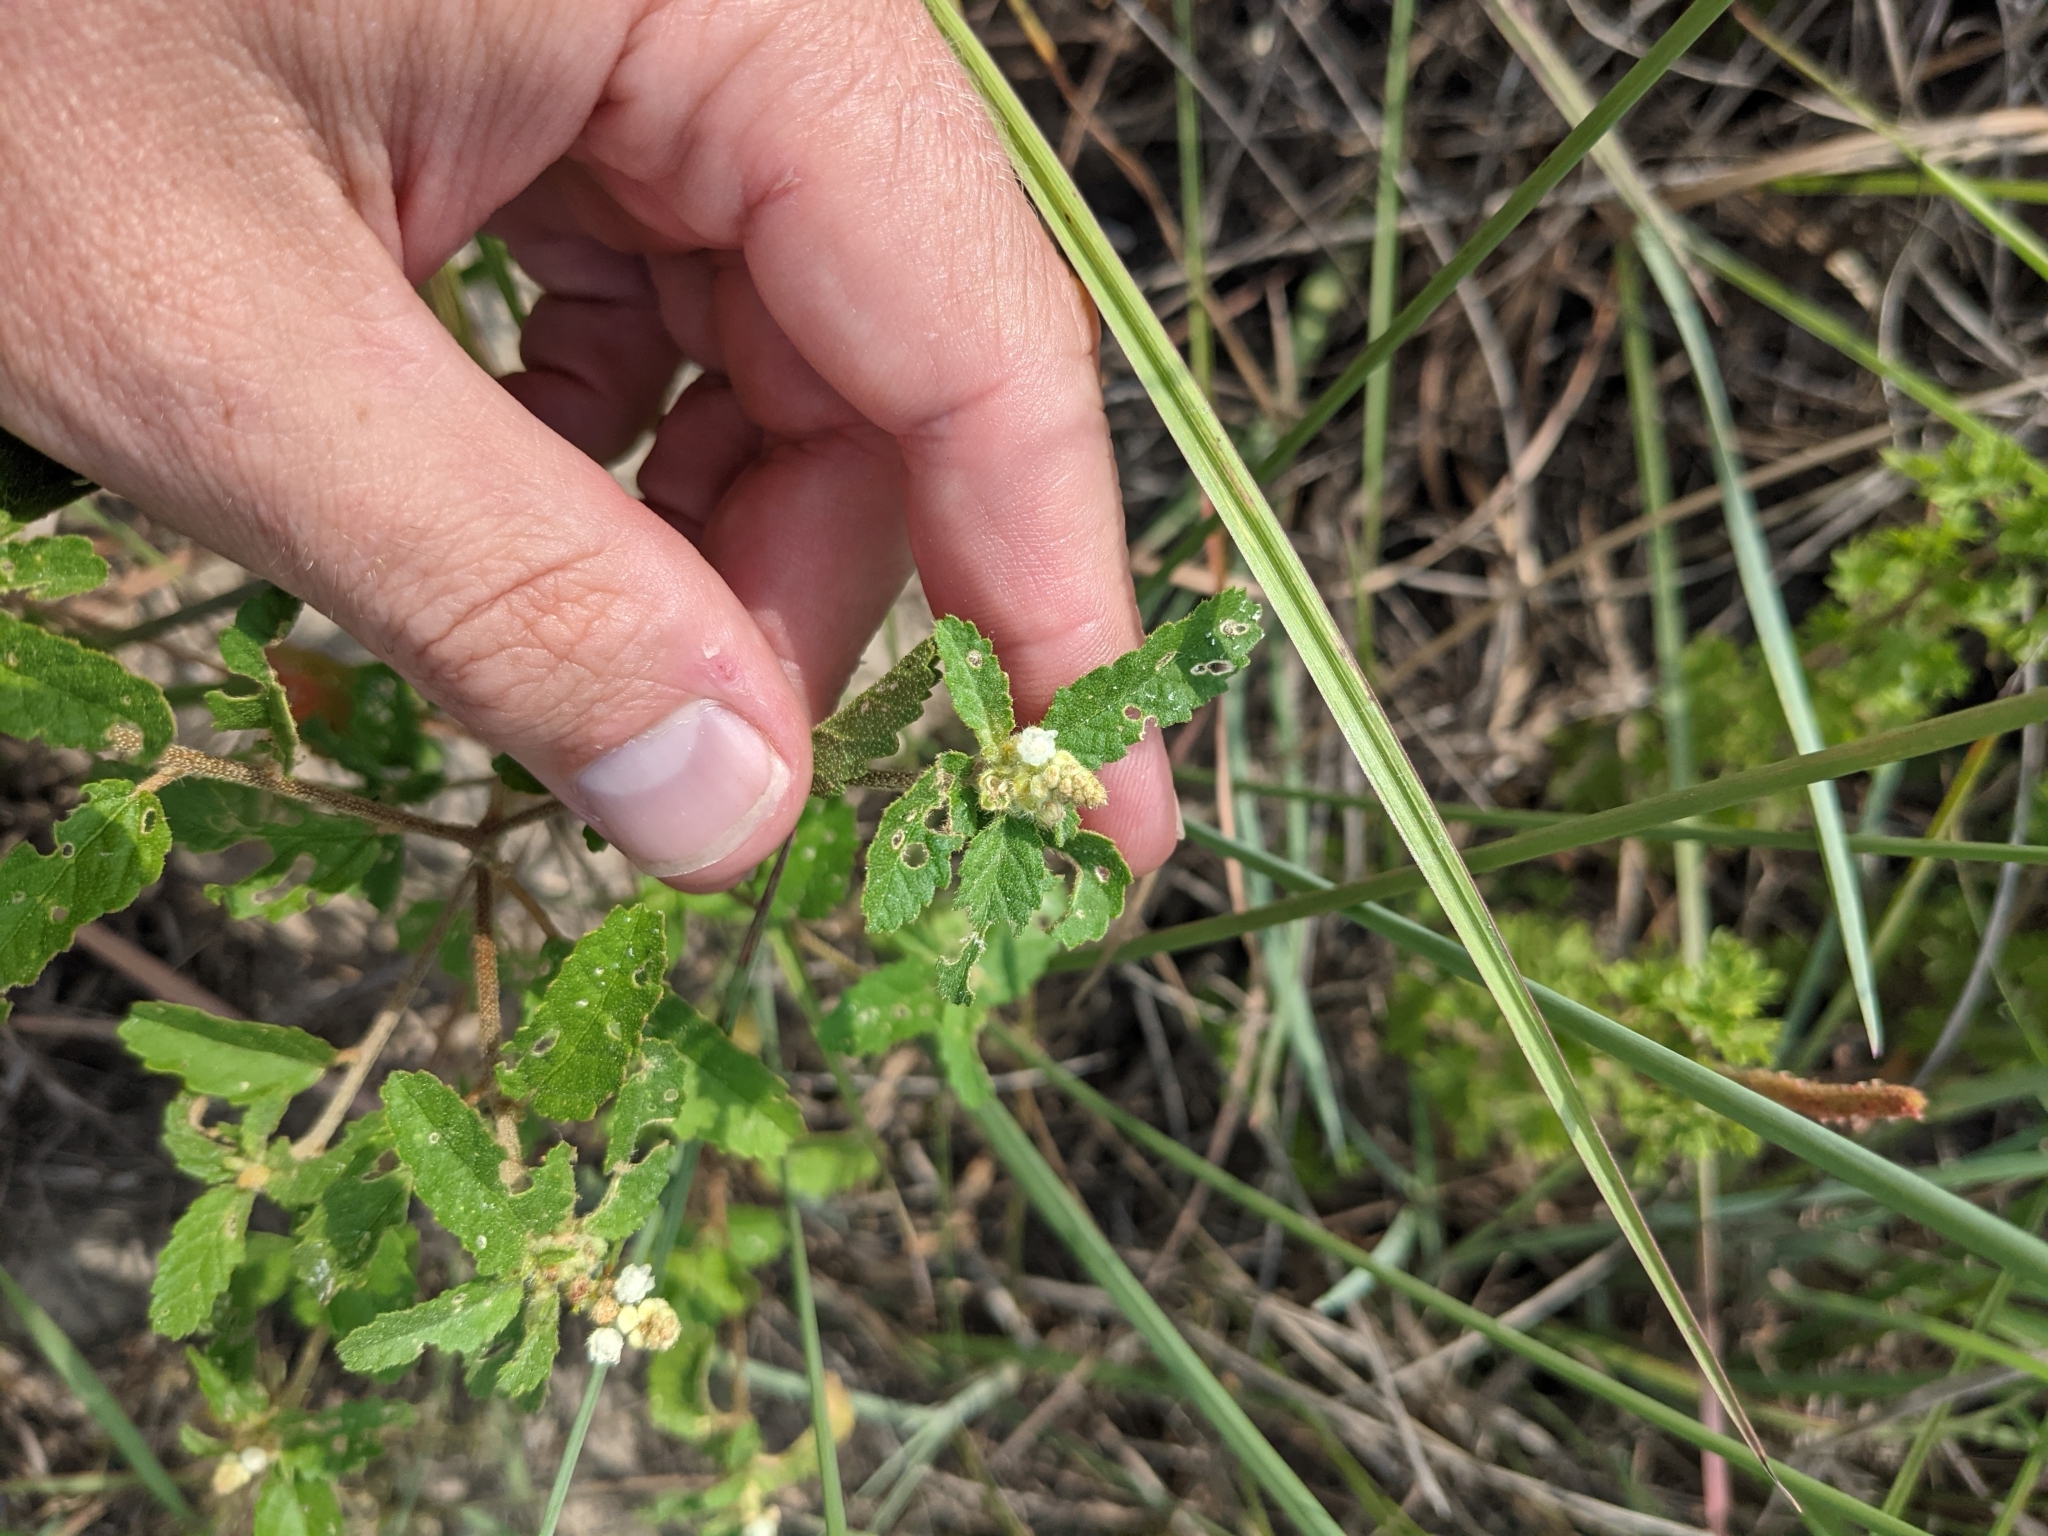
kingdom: Plantae
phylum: Tracheophyta
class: Magnoliopsida
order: Malpighiales
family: Euphorbiaceae
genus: Croton
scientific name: Croton glandulosus
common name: Tropic croton
